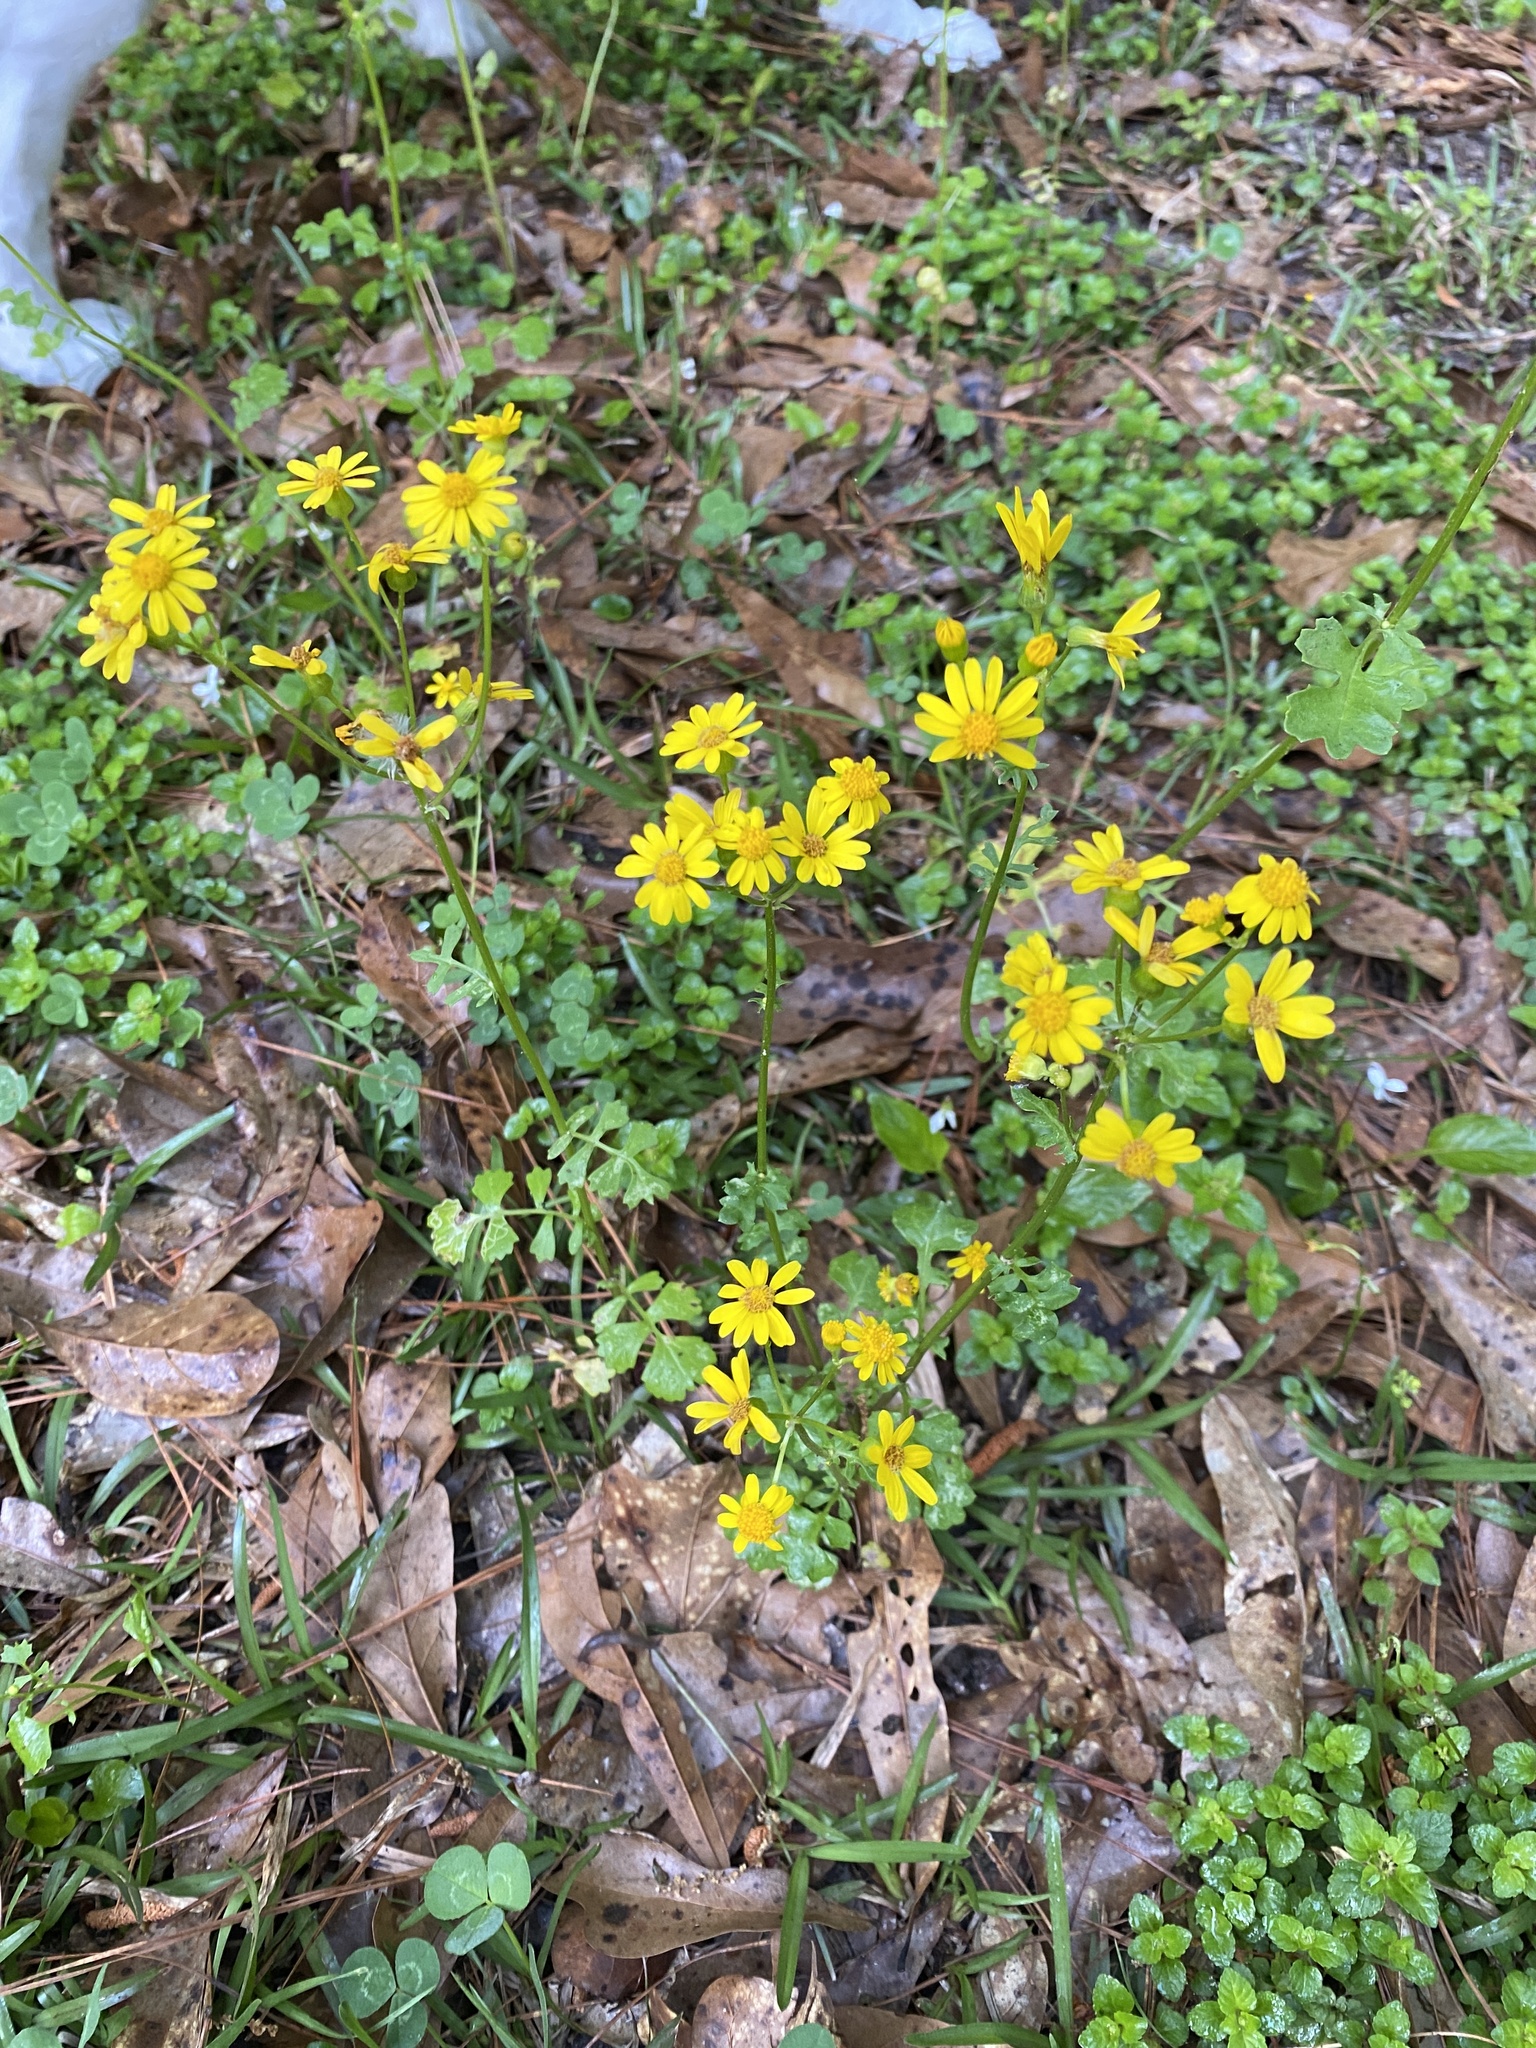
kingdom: Plantae
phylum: Tracheophyta
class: Magnoliopsida
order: Asterales
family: Asteraceae
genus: Packera
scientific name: Packera glabella
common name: Butterweed
